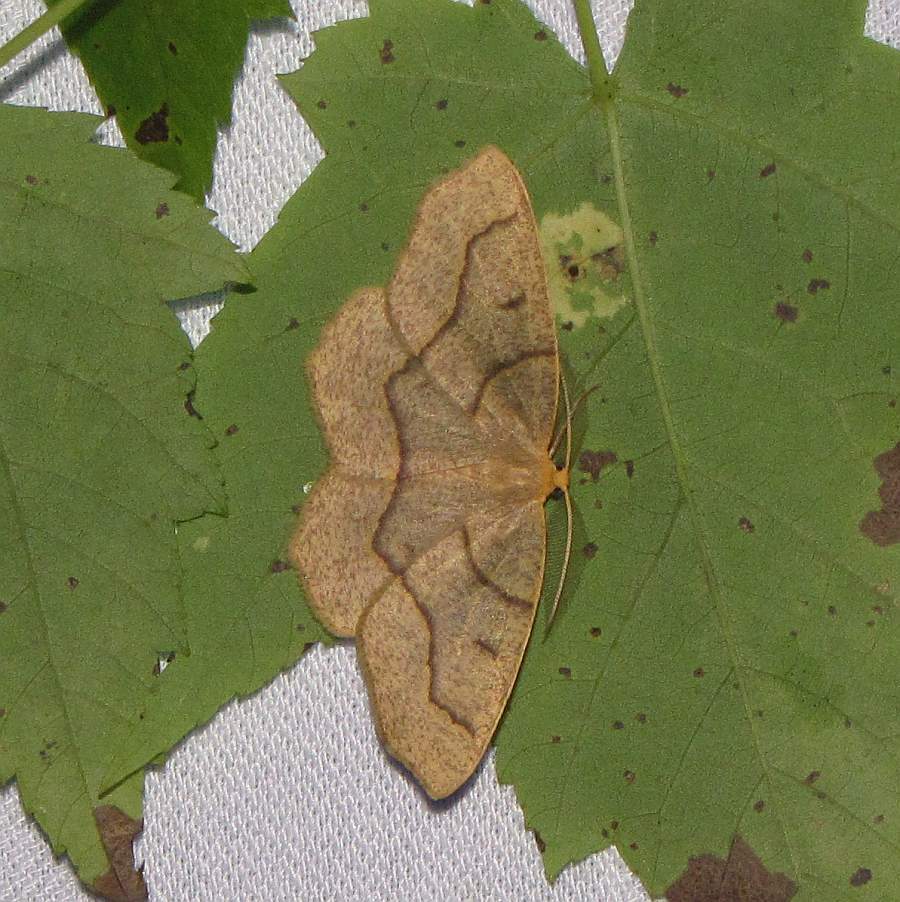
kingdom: Animalia
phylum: Arthropoda
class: Insecta
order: Lepidoptera
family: Geometridae
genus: Lambdina
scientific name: Lambdina fiscellaria
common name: Hemlock looper
